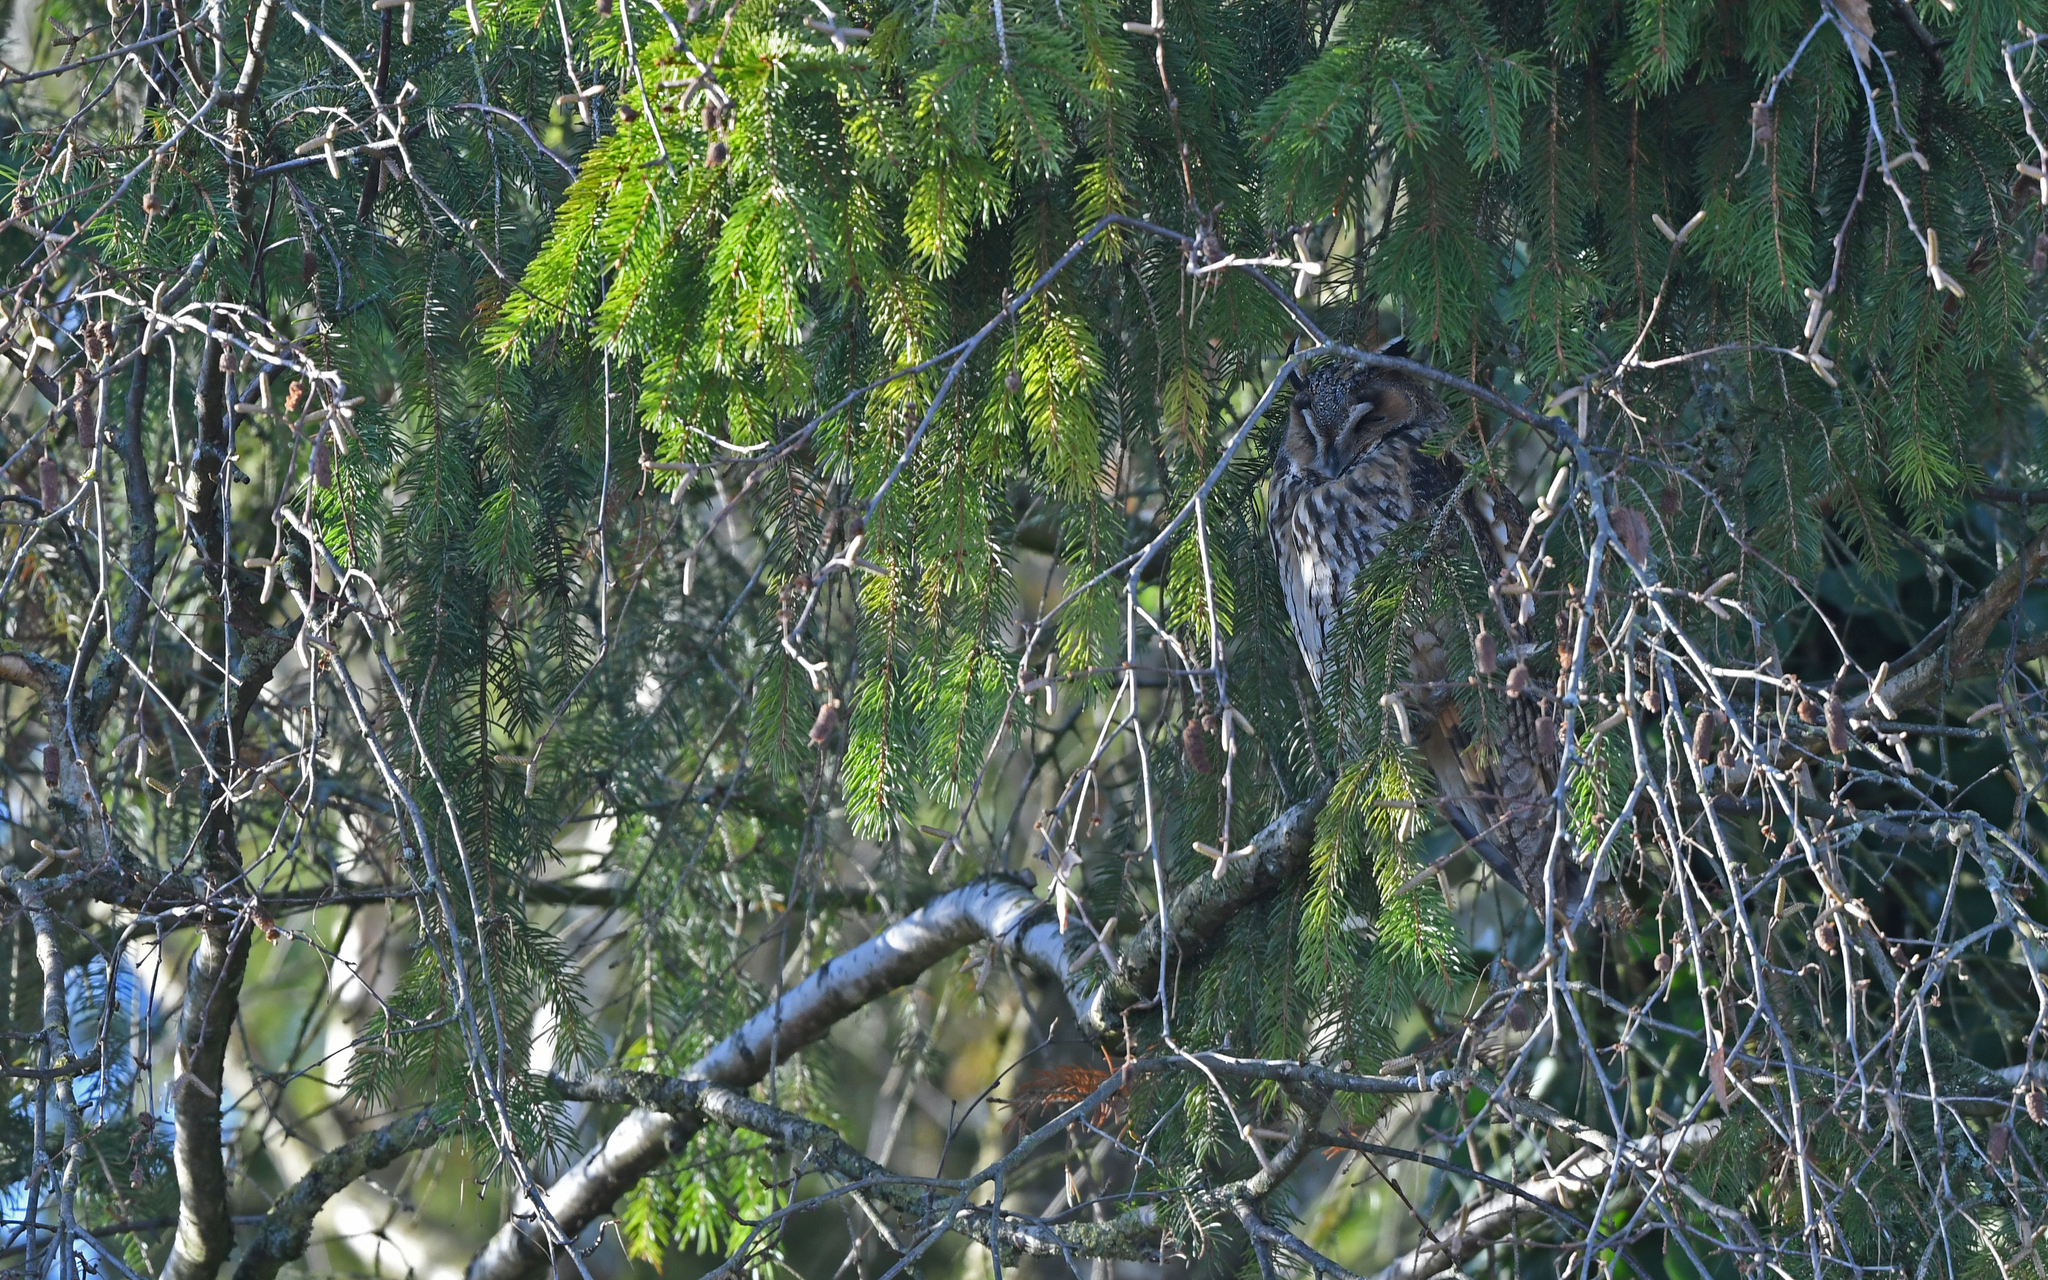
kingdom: Animalia
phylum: Chordata
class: Aves
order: Strigiformes
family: Strigidae
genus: Asio
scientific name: Asio otus
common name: Long-eared owl
